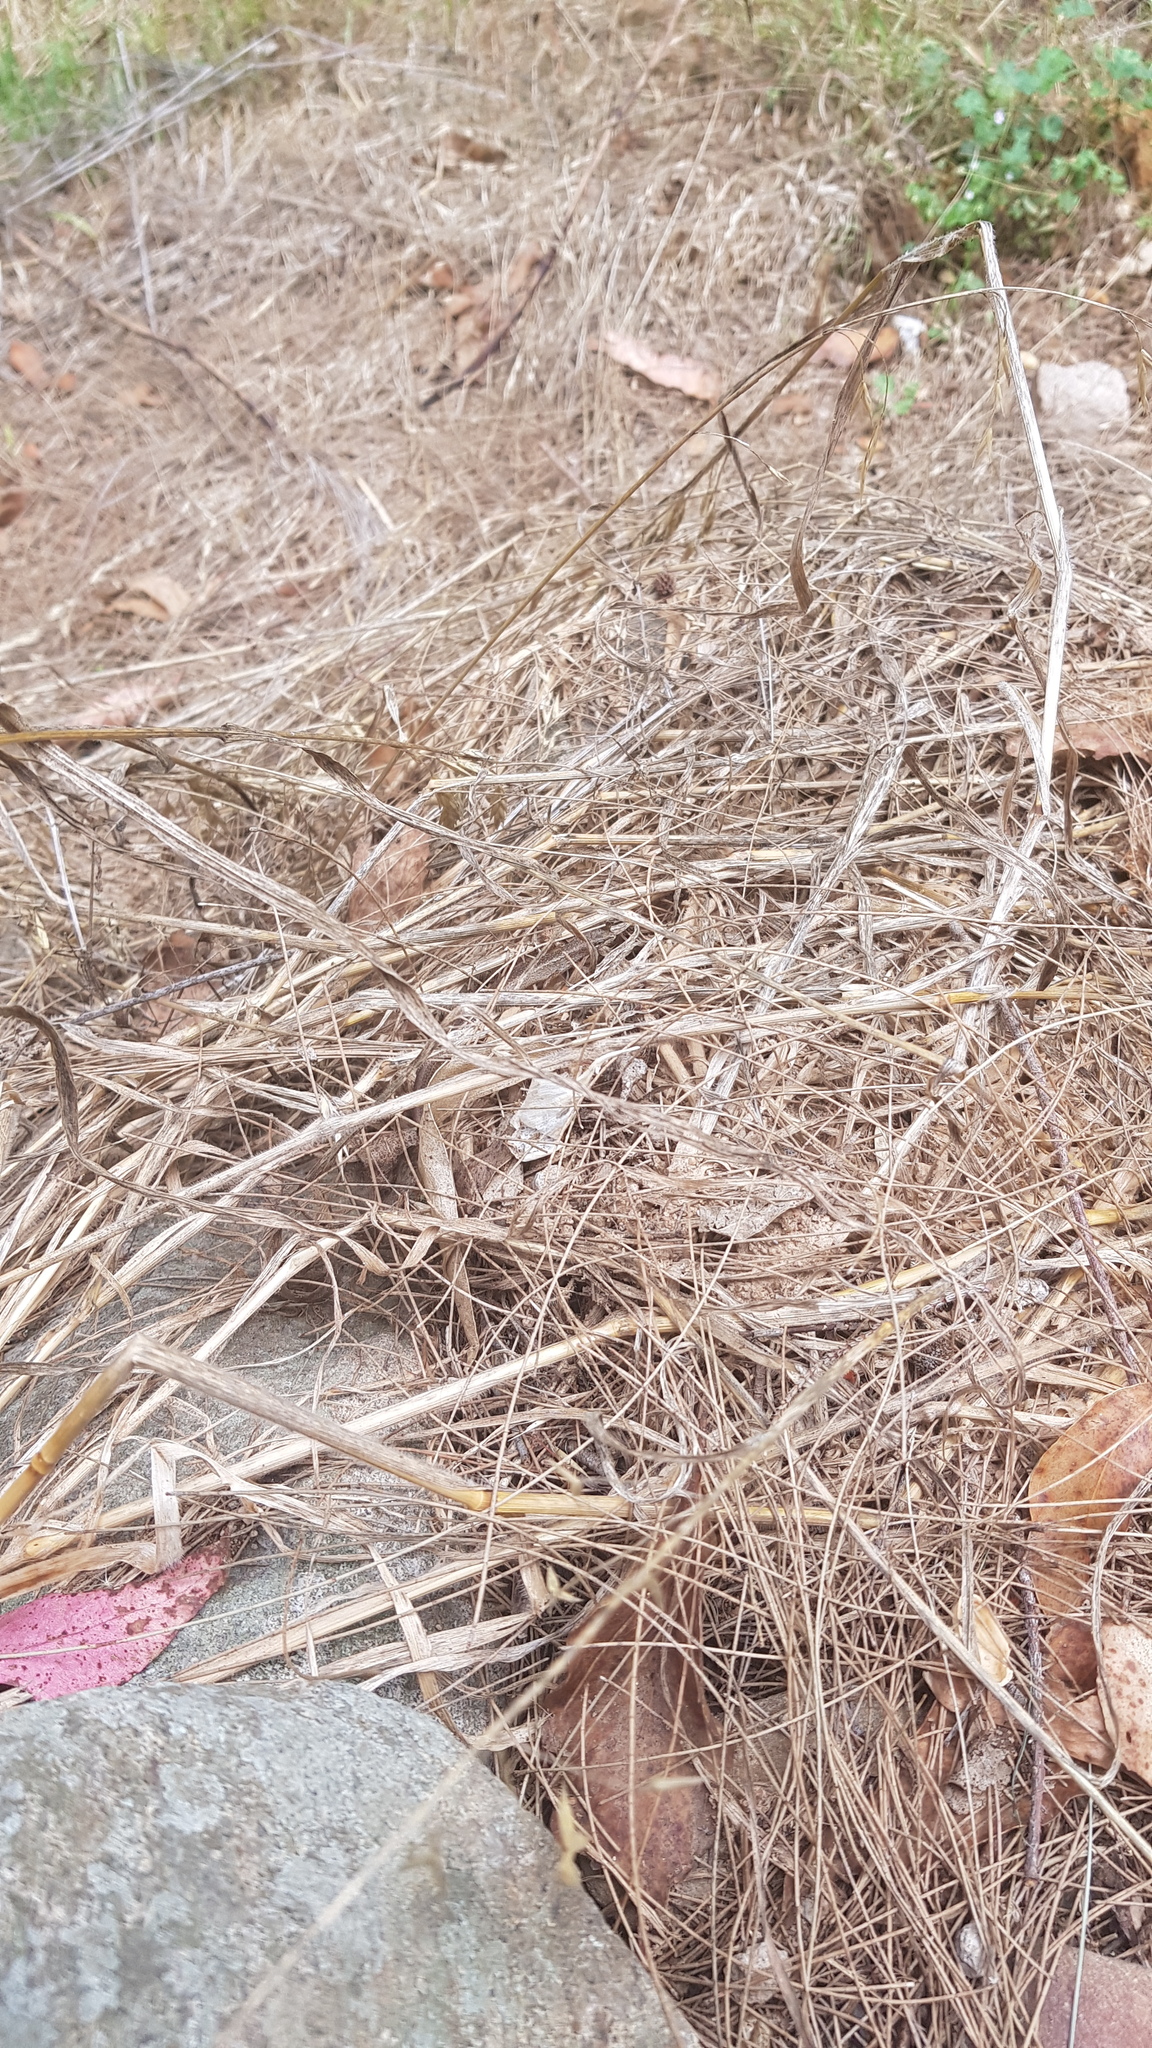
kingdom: Animalia
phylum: Chordata
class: Squamata
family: Scincidae
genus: Saproscincus
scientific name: Saproscincus mustelinus
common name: Southern weasel skink
